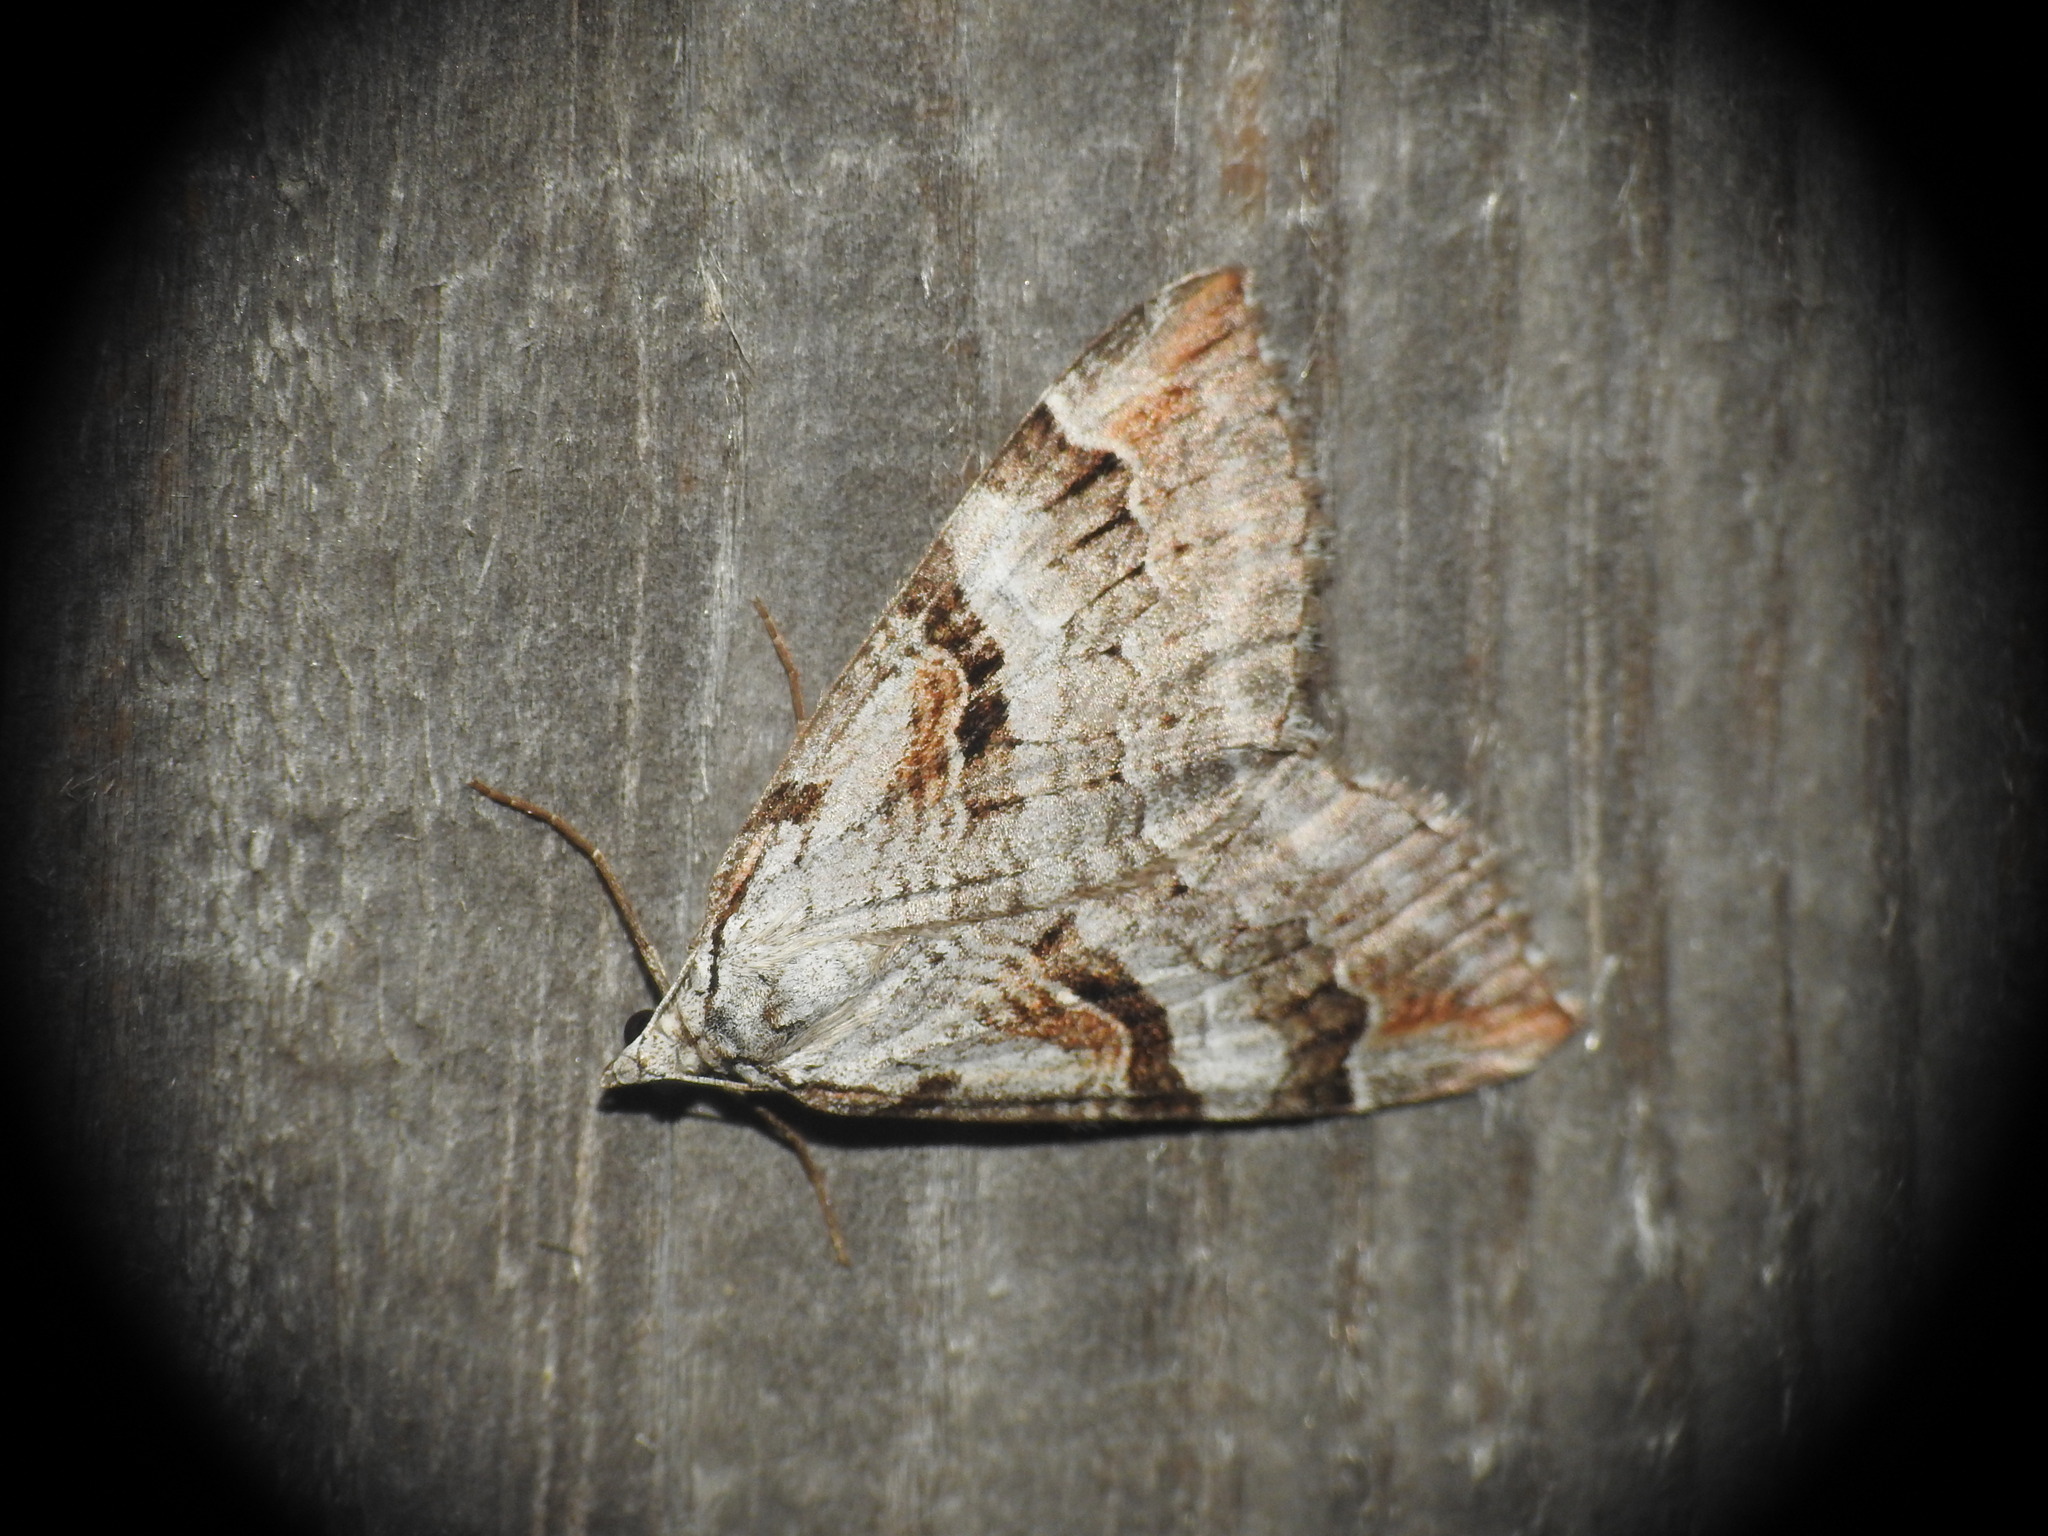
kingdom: Animalia
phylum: Arthropoda
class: Insecta
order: Lepidoptera
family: Geometridae
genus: Aplocera
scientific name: Aplocera praeformata
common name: Purple treble-bar
